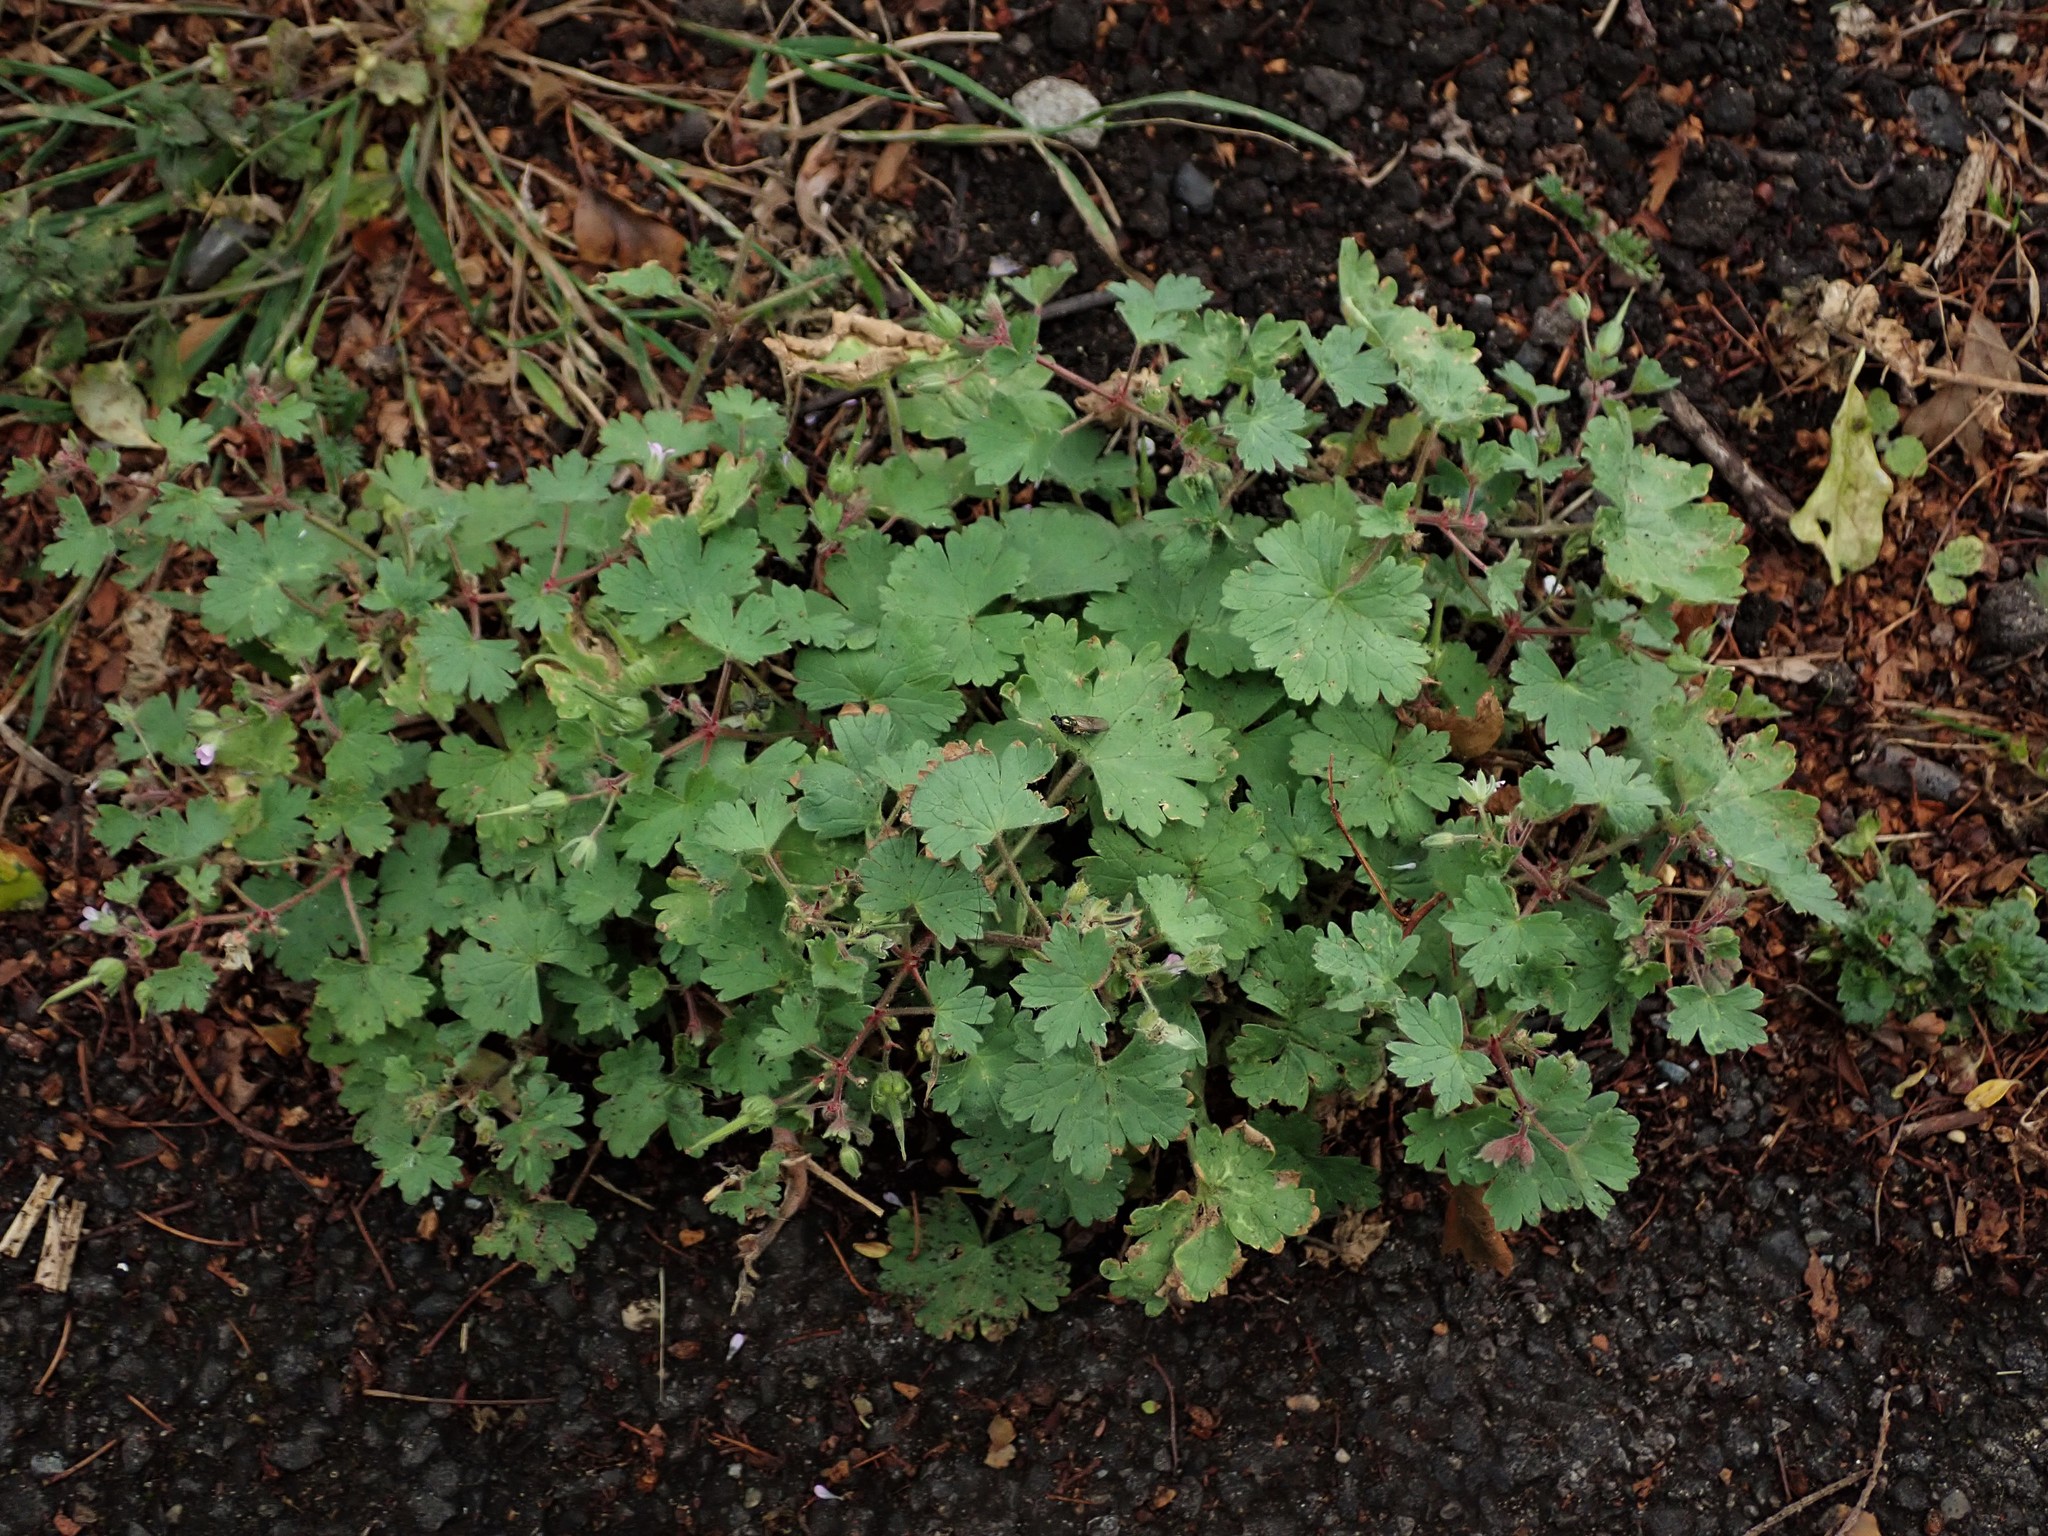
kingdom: Plantae
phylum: Tracheophyta
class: Magnoliopsida
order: Geraniales
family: Geraniaceae
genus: Geranium
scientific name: Geranium rotundifolium
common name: Round-leaved crane's-bill
